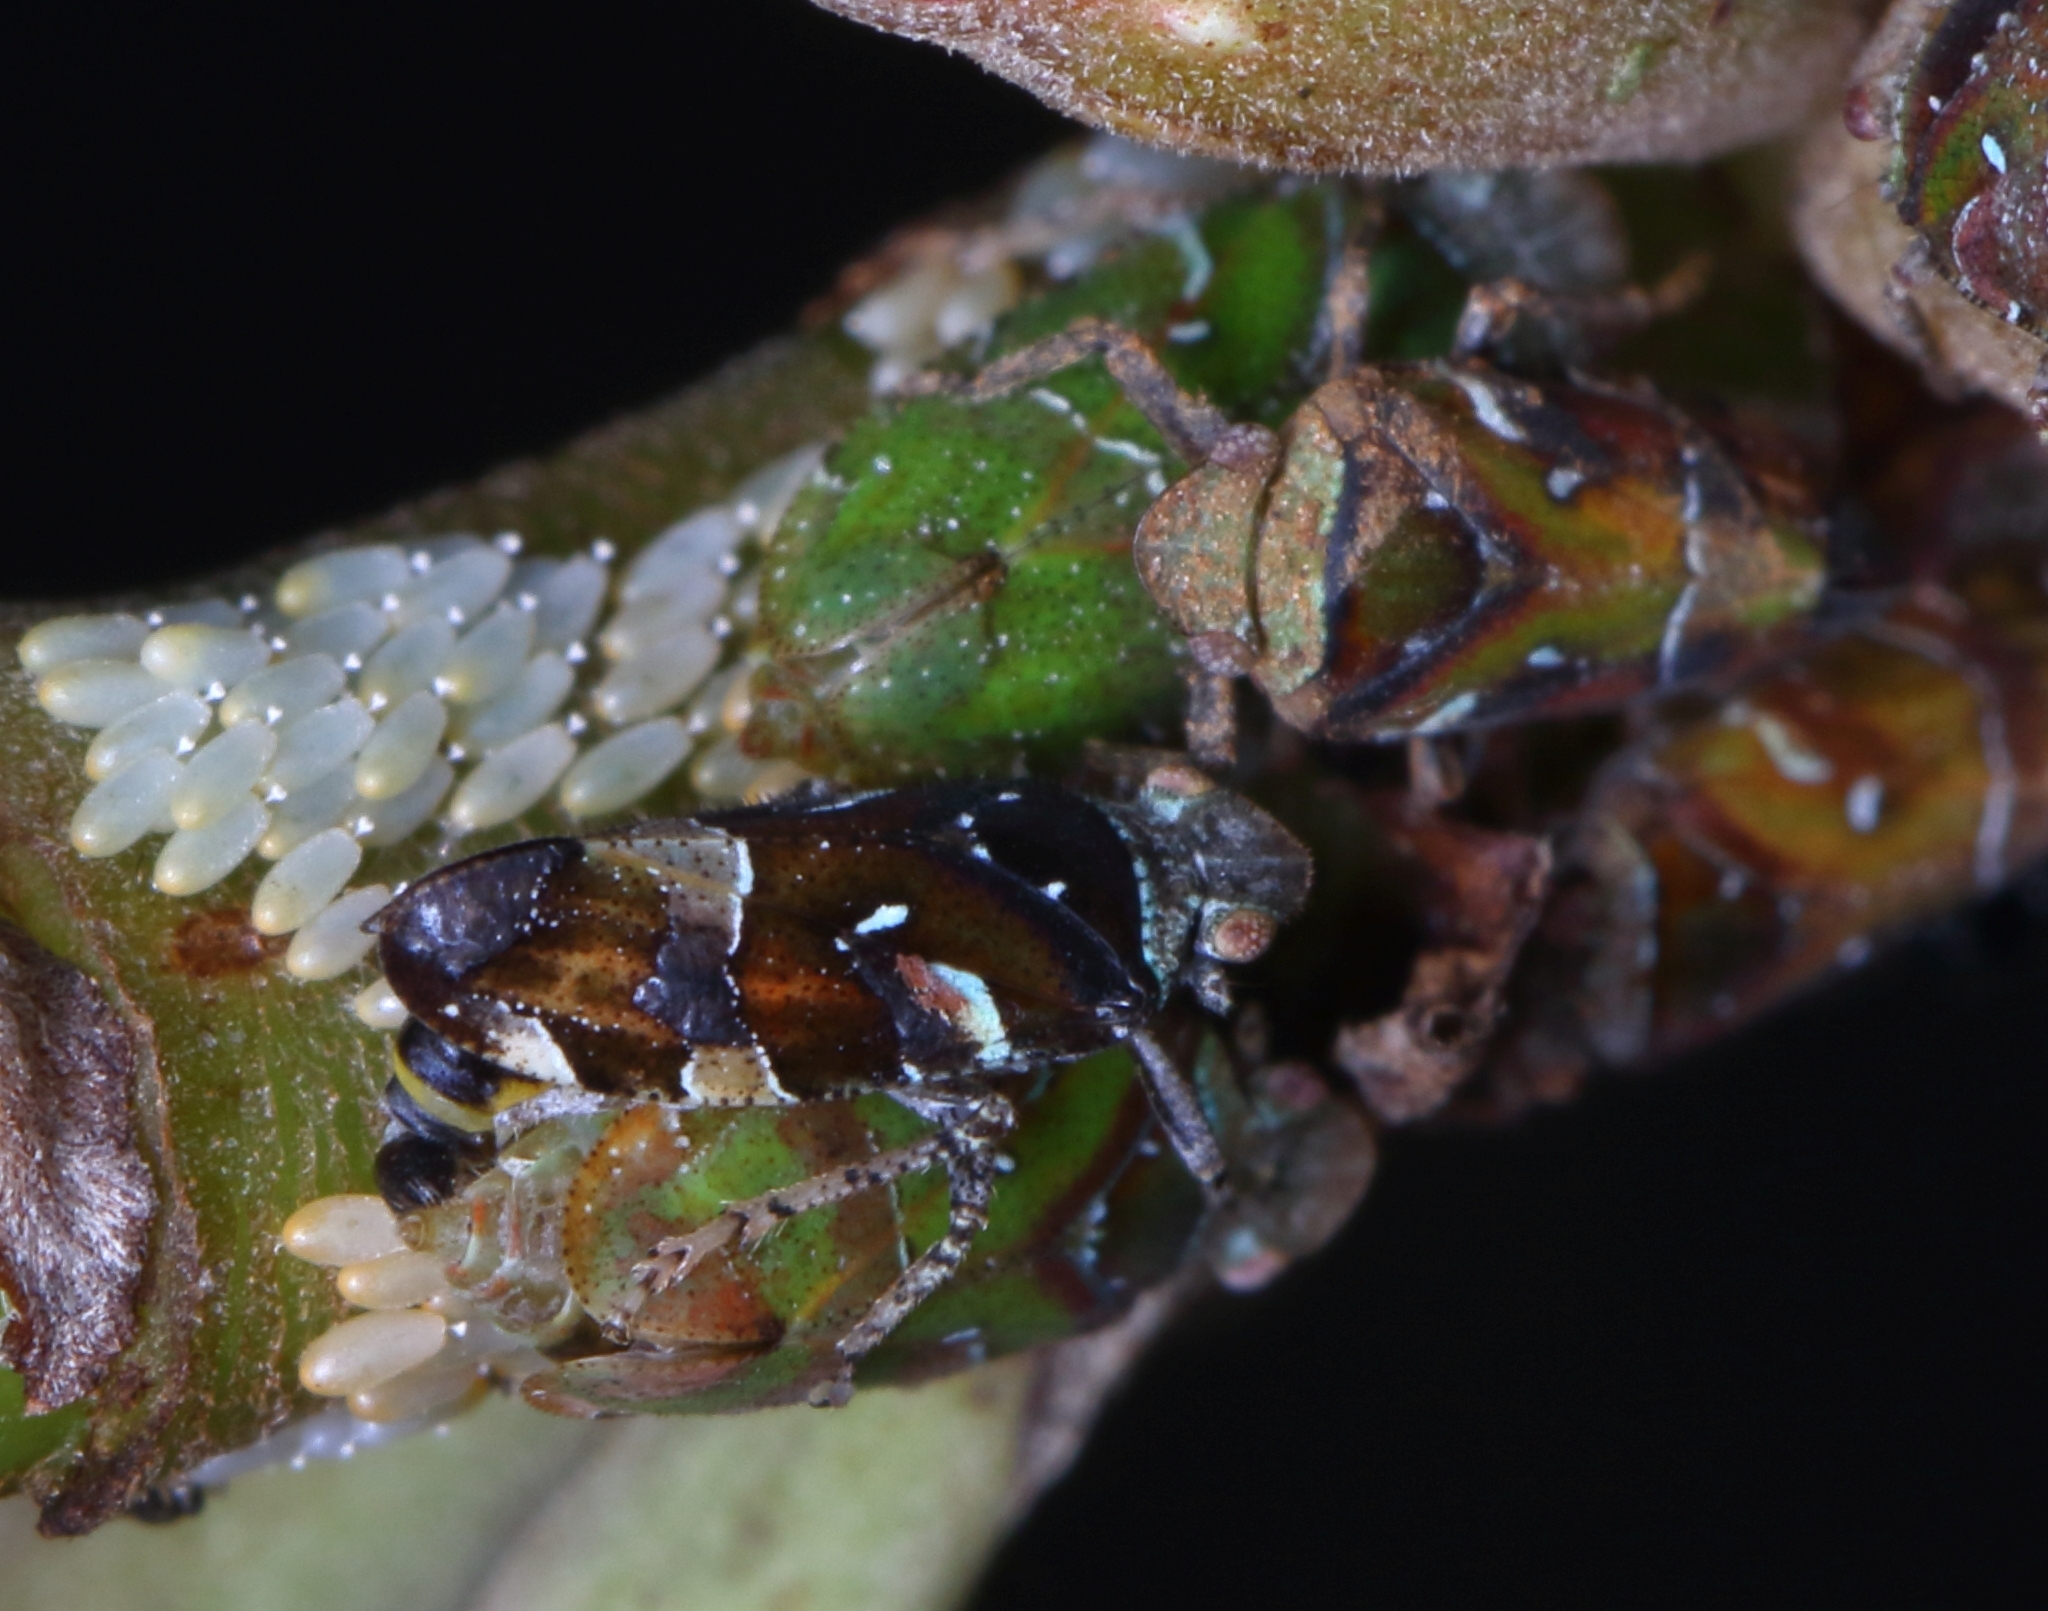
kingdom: Animalia
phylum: Arthropoda
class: Insecta
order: Hemiptera
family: Tettigometridae
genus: Nototettigometra
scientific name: Nototettigometra patruelis
